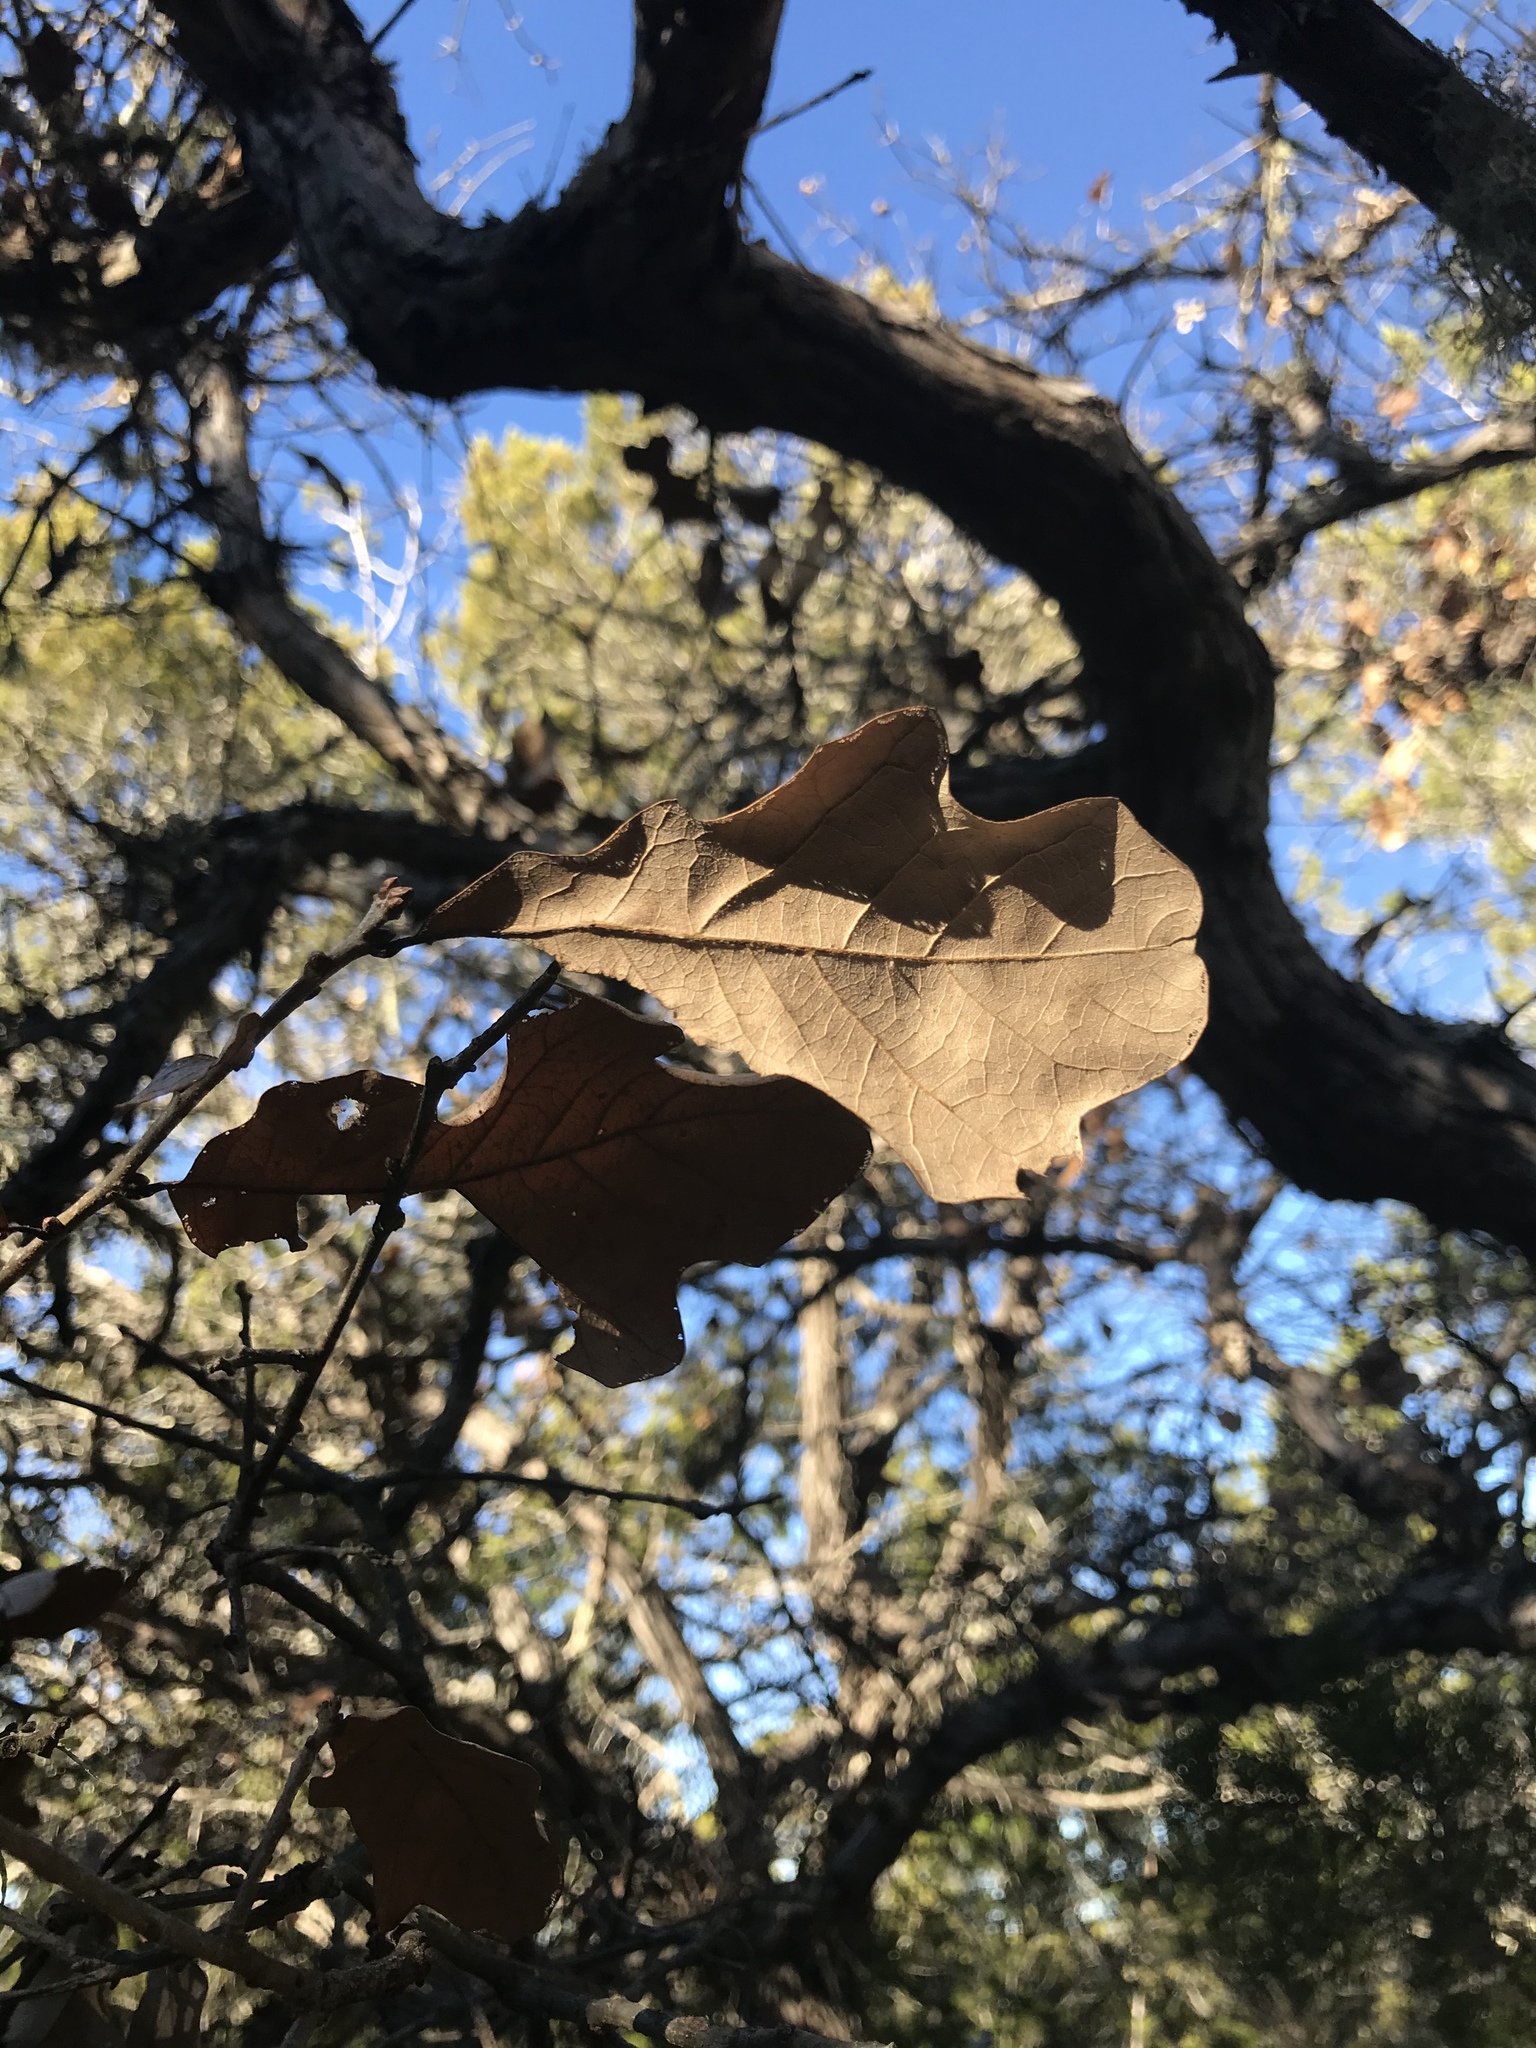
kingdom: Plantae
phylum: Tracheophyta
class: Magnoliopsida
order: Fagales
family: Fagaceae
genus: Quercus
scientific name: Quercus sinuata
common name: Durand oak
